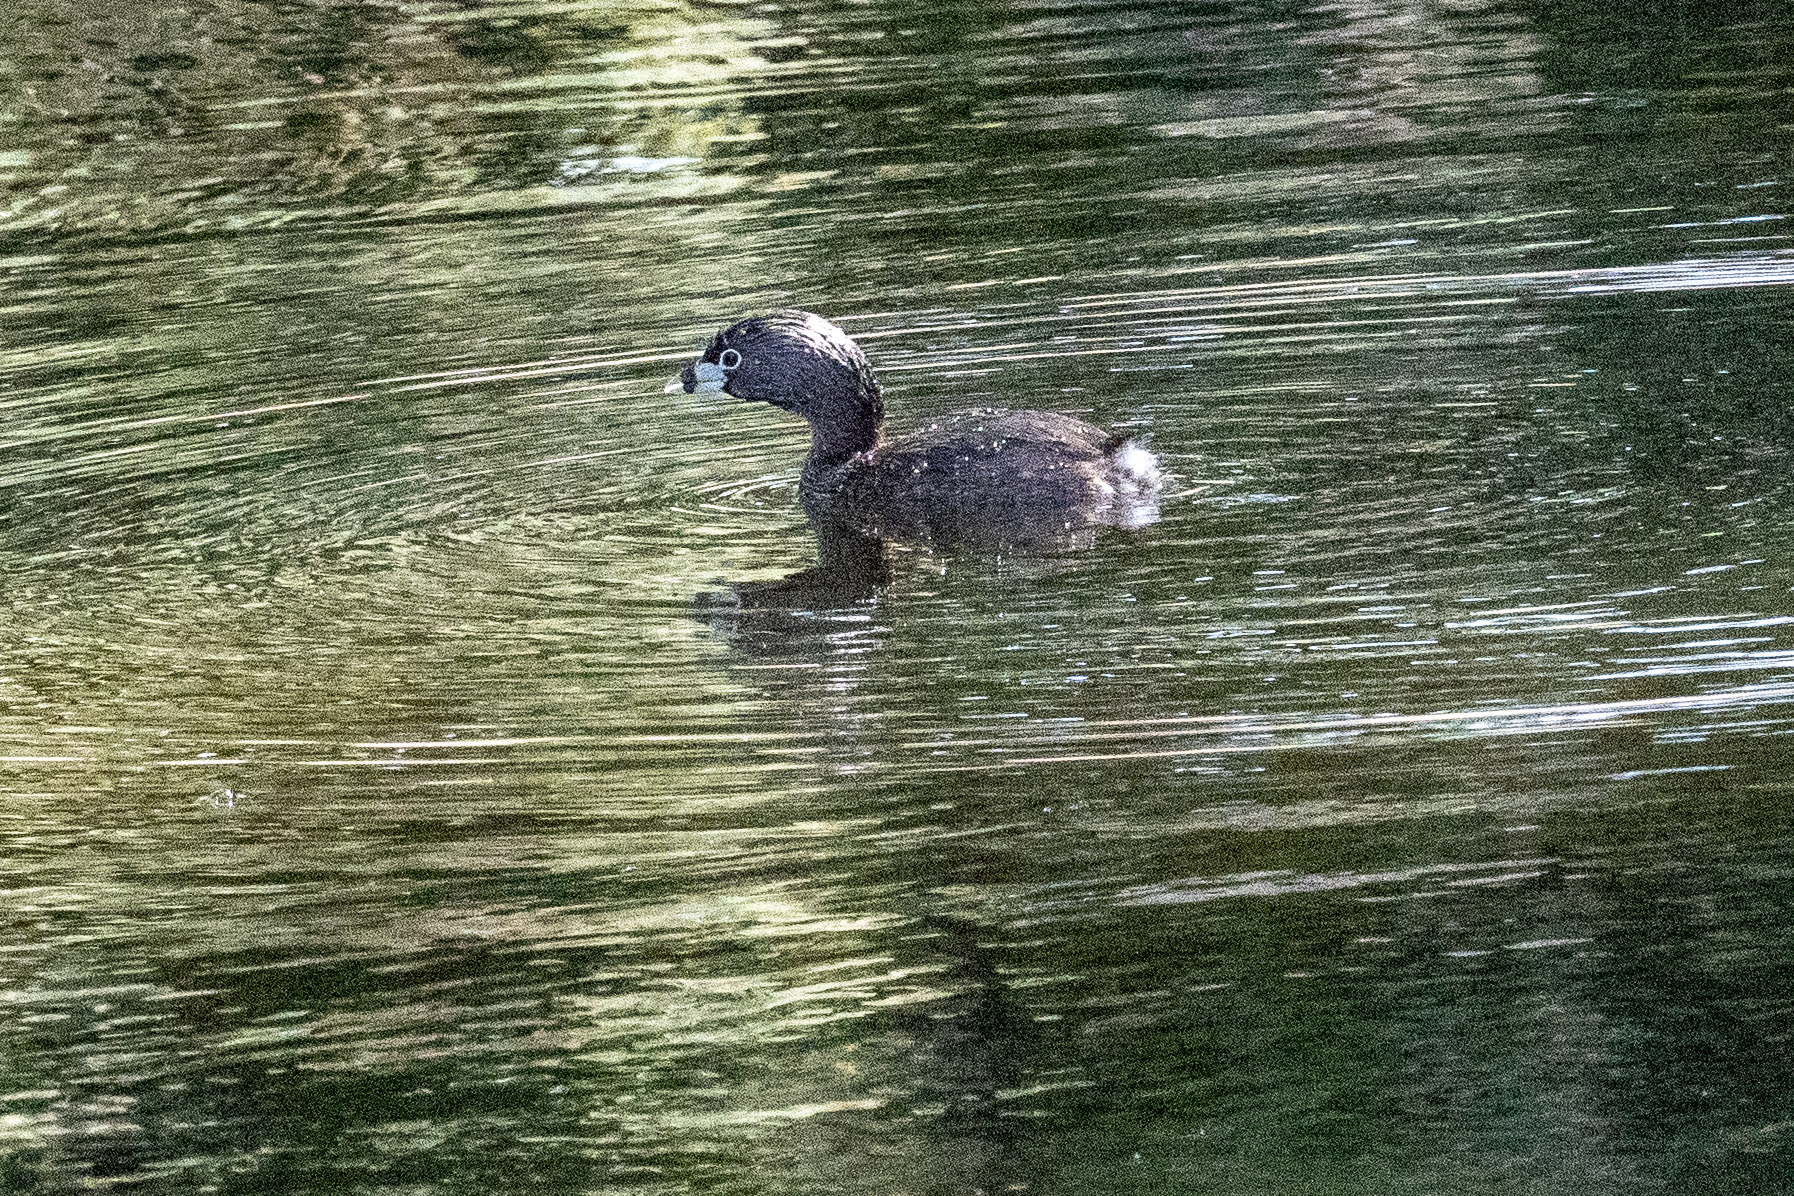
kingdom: Animalia
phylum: Chordata
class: Aves
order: Podicipediformes
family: Podicipedidae
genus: Podilymbus
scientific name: Podilymbus podiceps
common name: Pied-billed grebe
